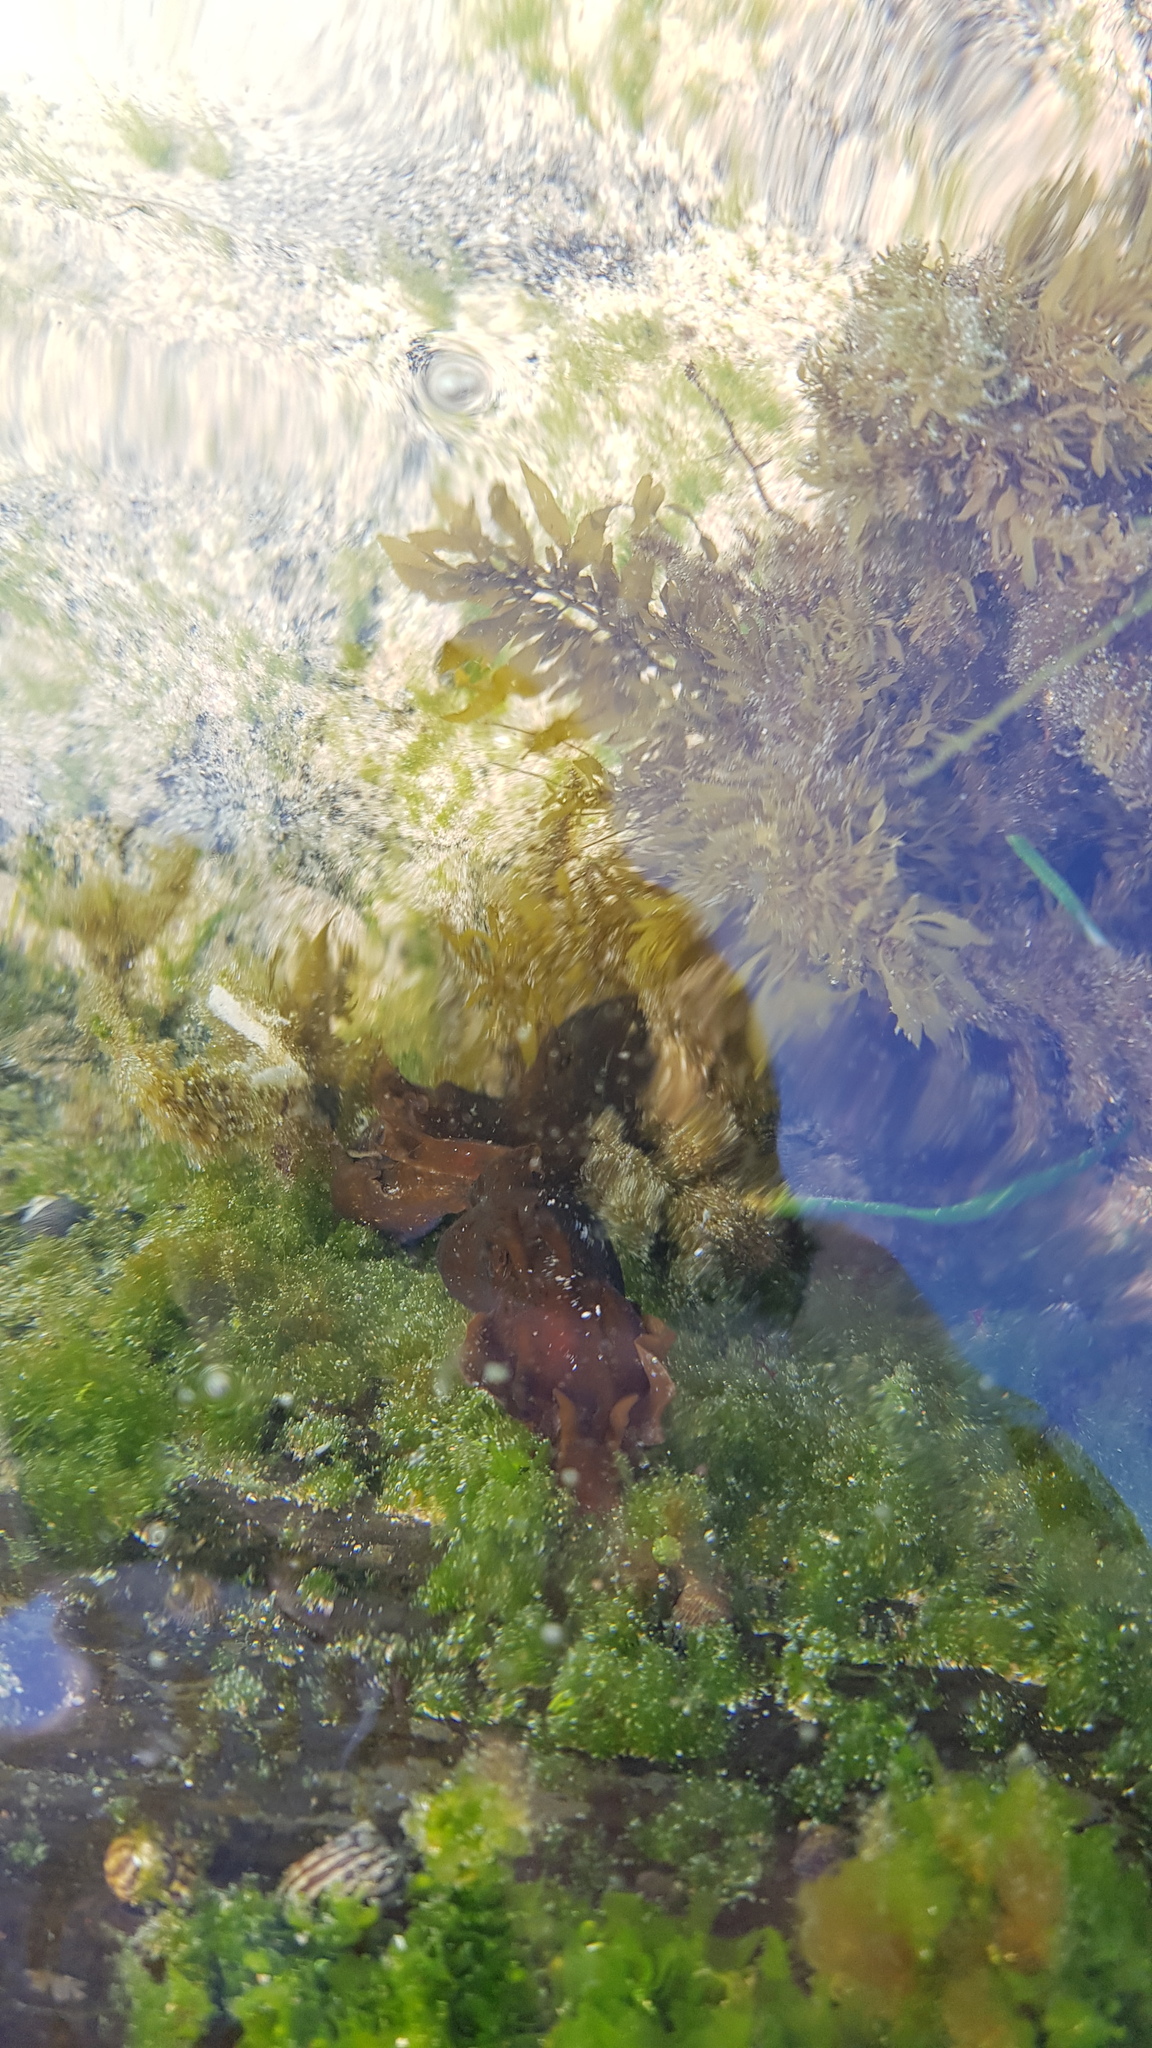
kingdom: Animalia
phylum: Mollusca
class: Gastropoda
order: Aplysiida
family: Aplysiidae
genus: Aplysia
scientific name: Aplysia juliana
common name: Walking sea hare
